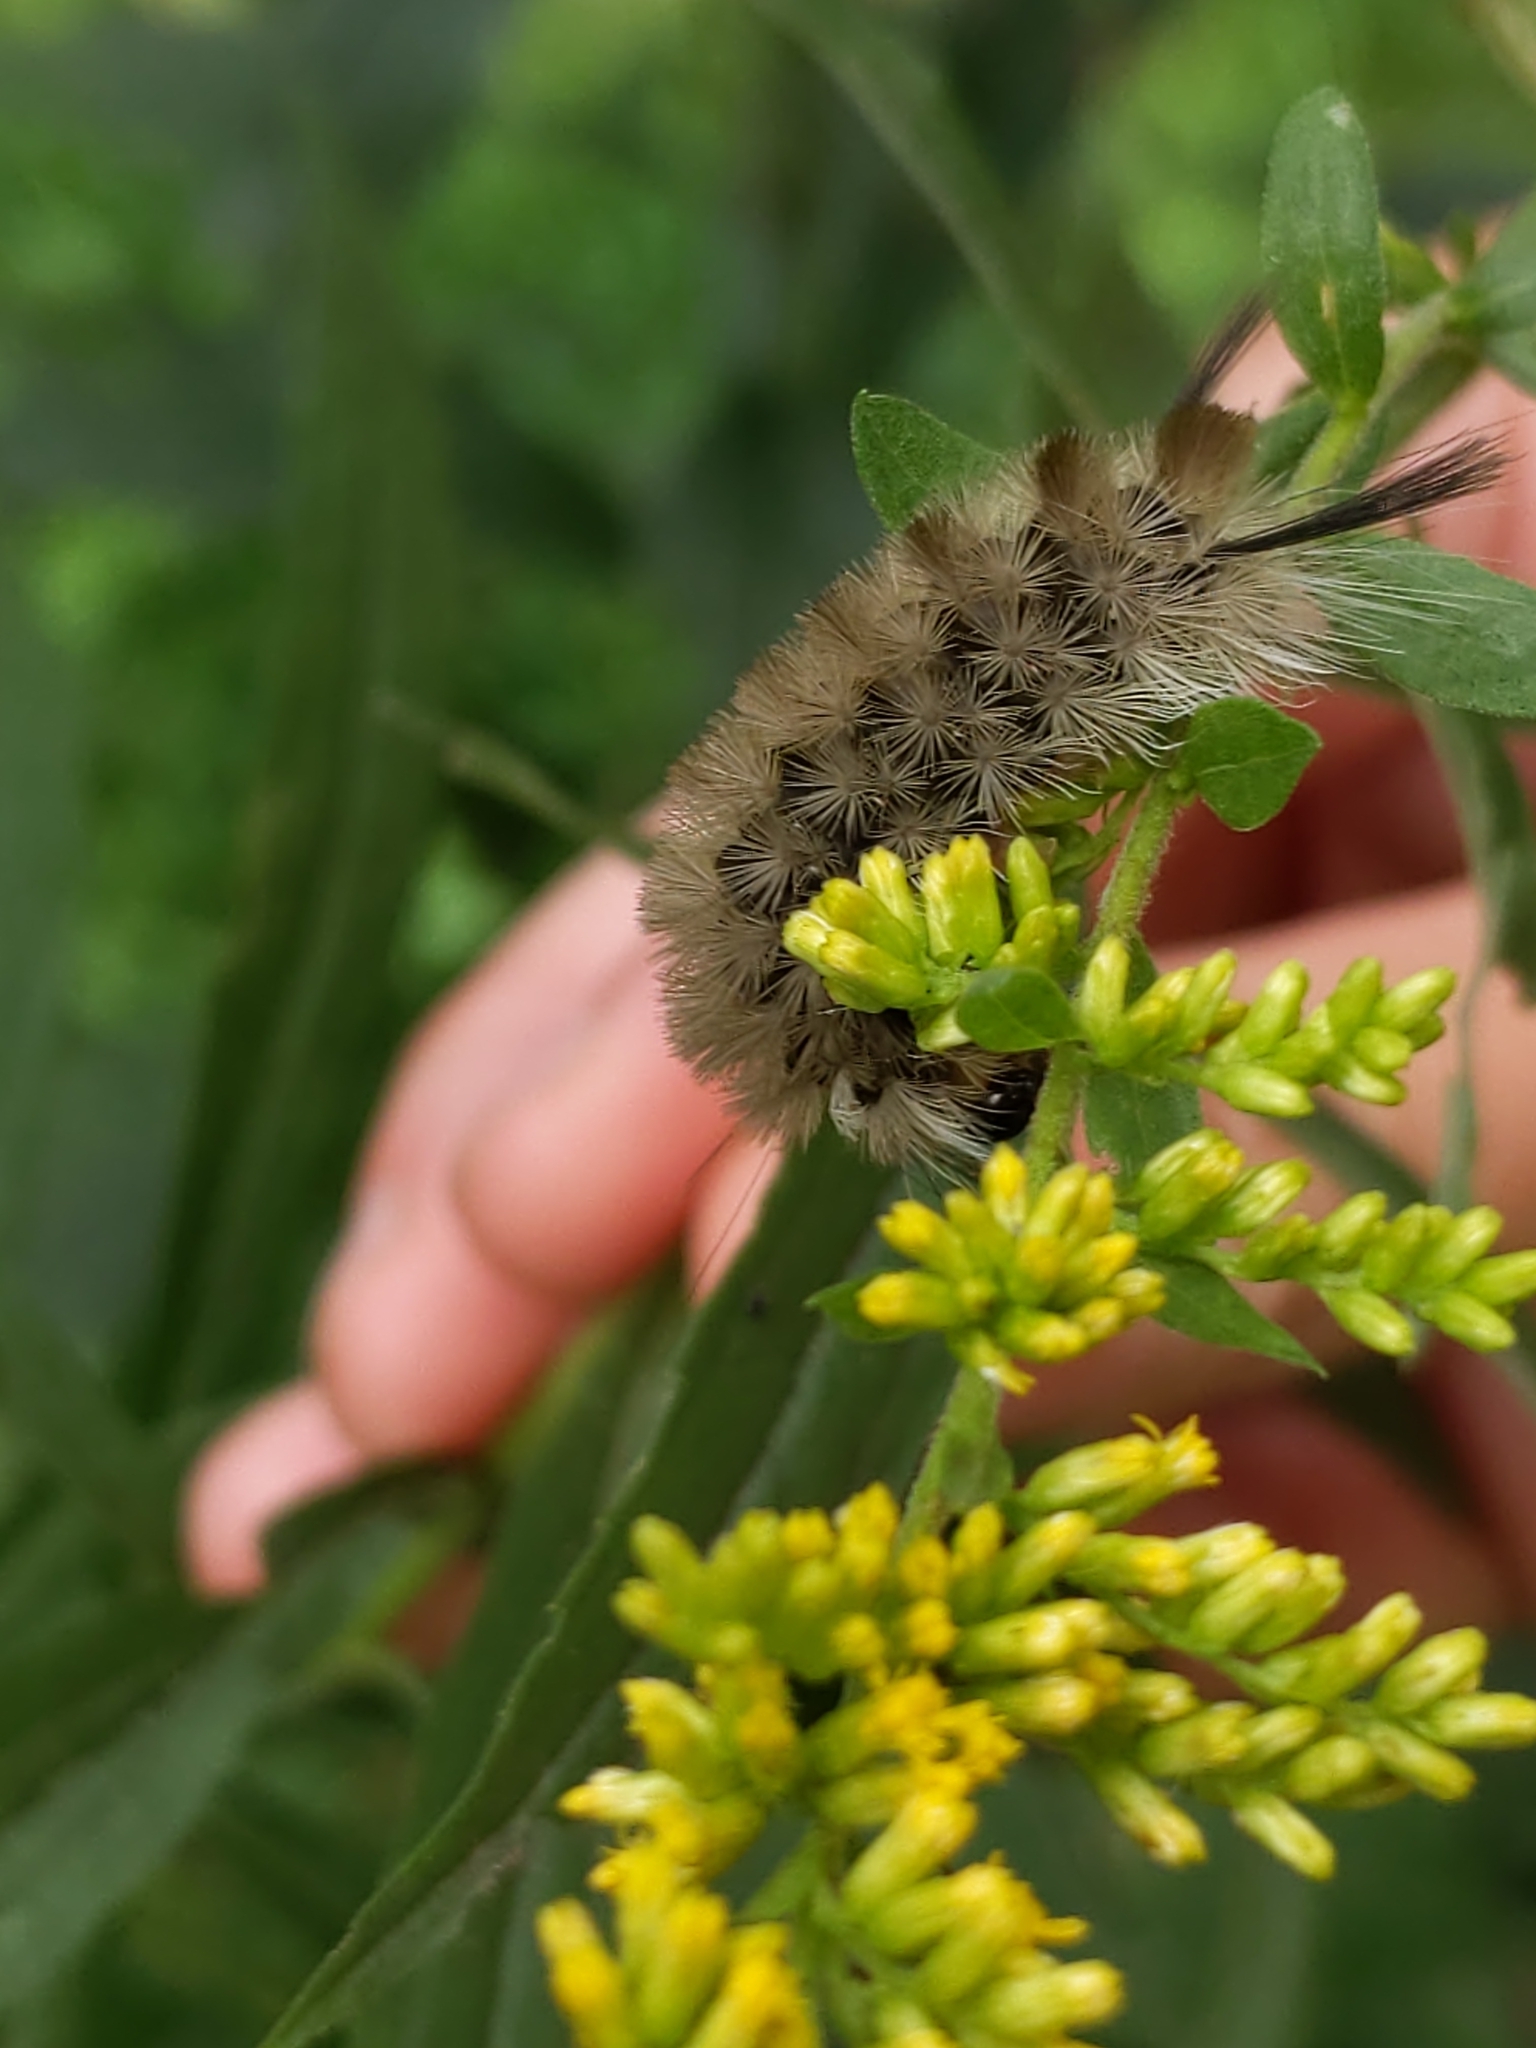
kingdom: Animalia
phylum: Arthropoda
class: Insecta
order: Lepidoptera
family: Erebidae
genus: Halysidota
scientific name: Halysidota tessellaris
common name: Banded tussock moth
